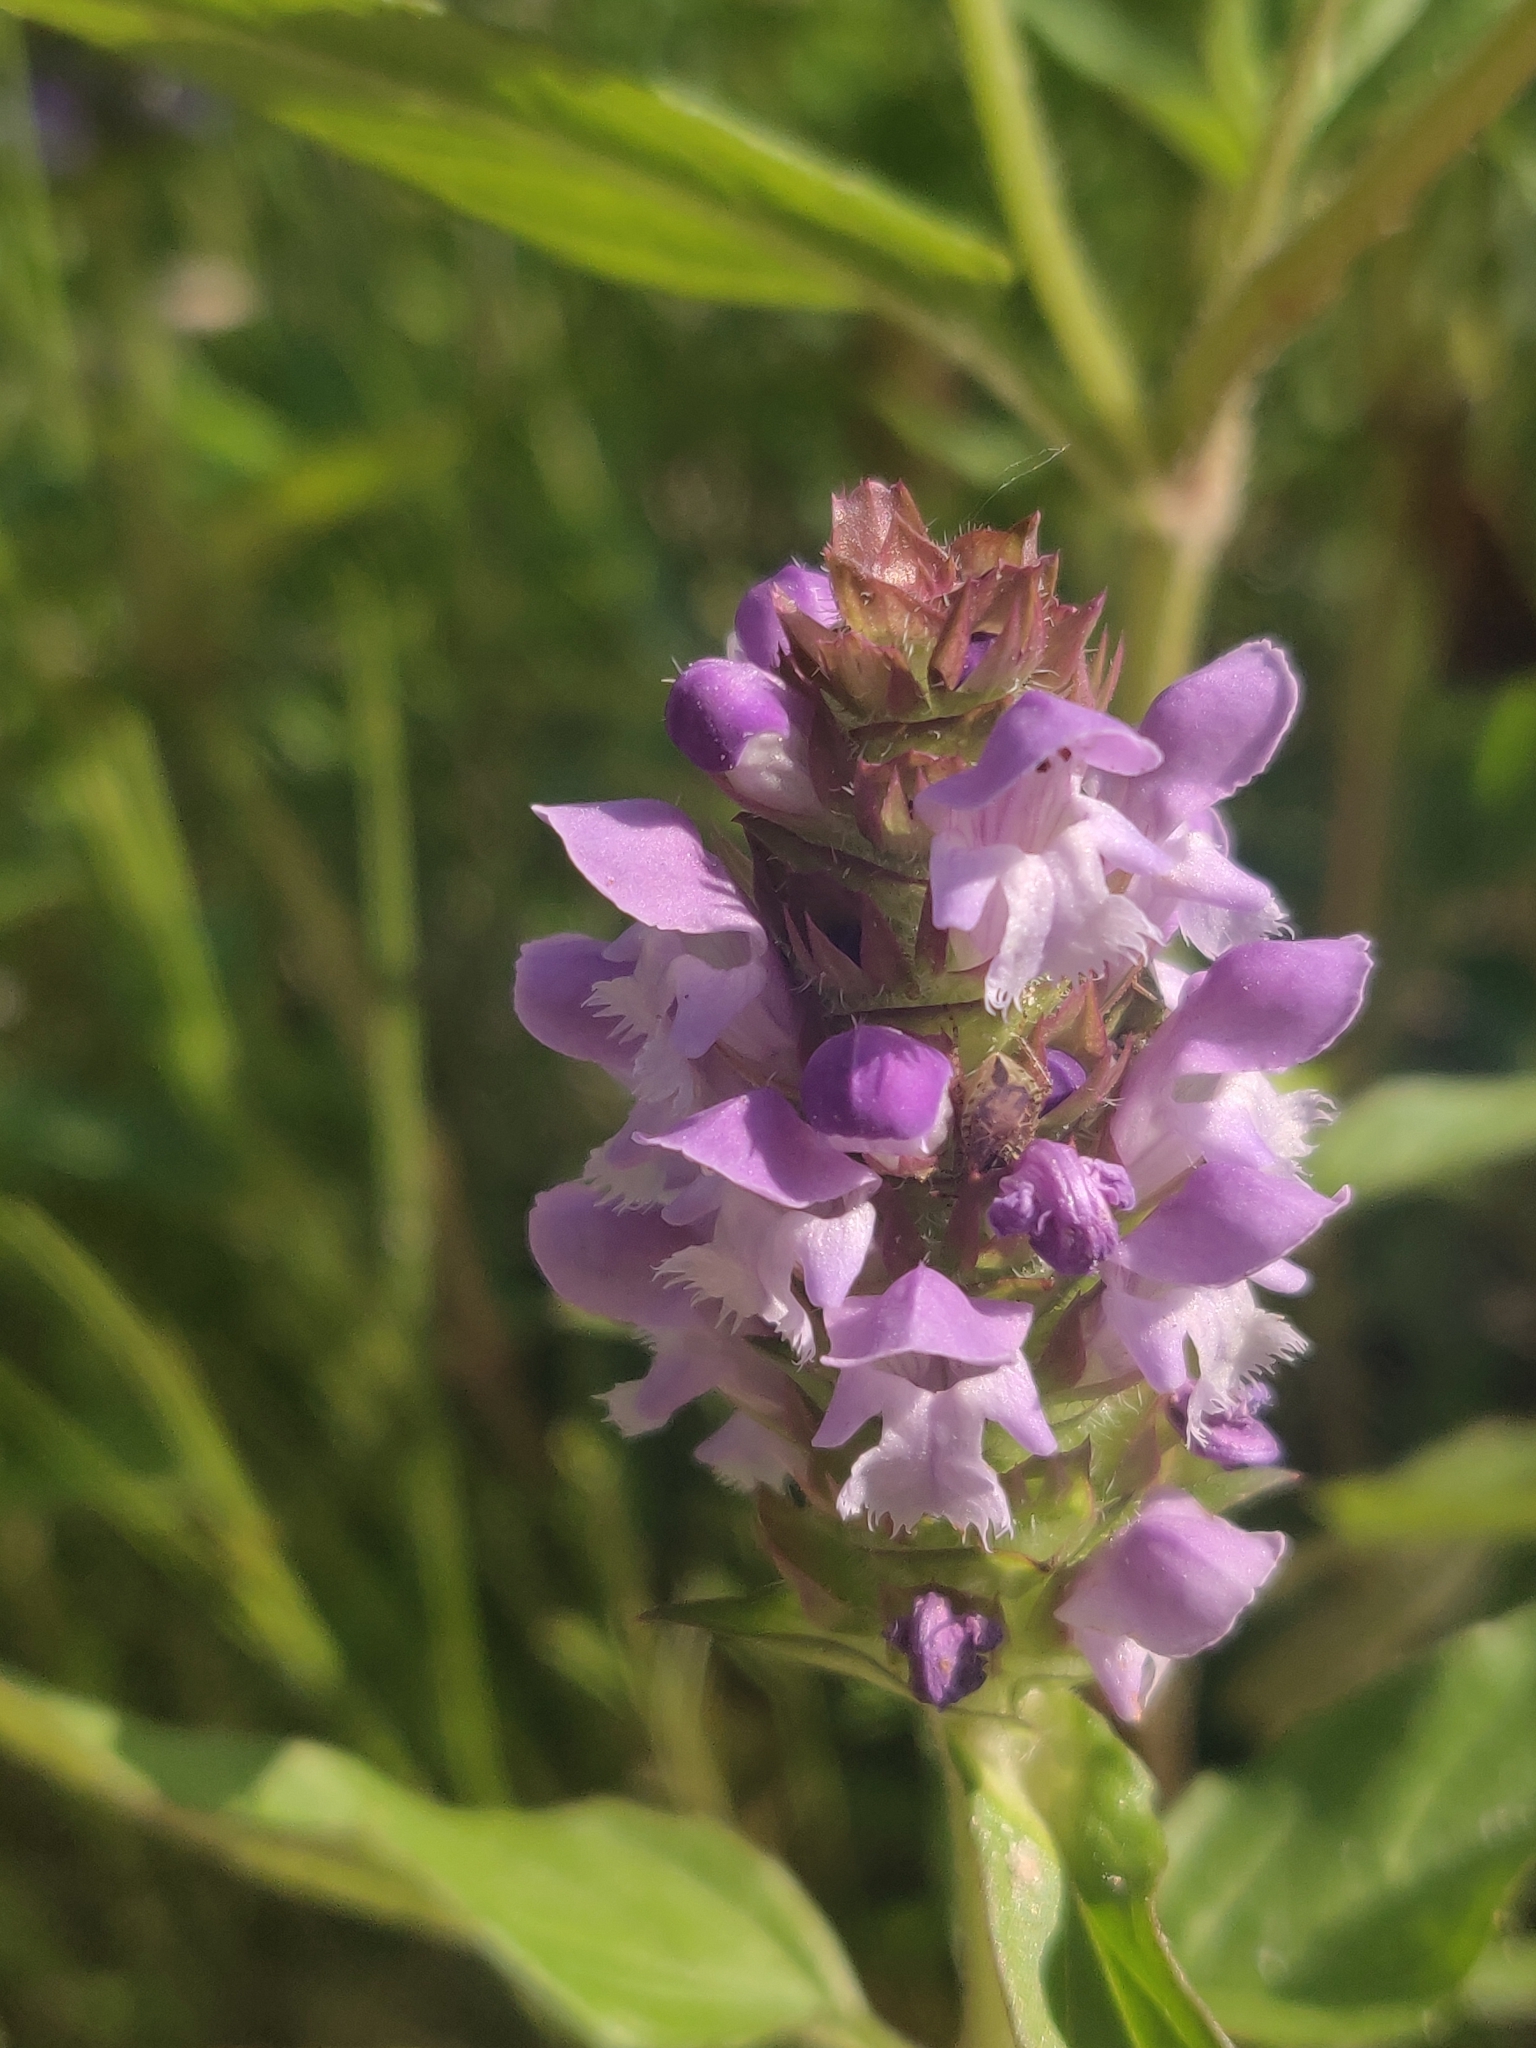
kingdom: Plantae
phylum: Tracheophyta
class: Magnoliopsida
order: Lamiales
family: Lamiaceae
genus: Prunella
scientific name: Prunella vulgaris
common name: Heal-all
